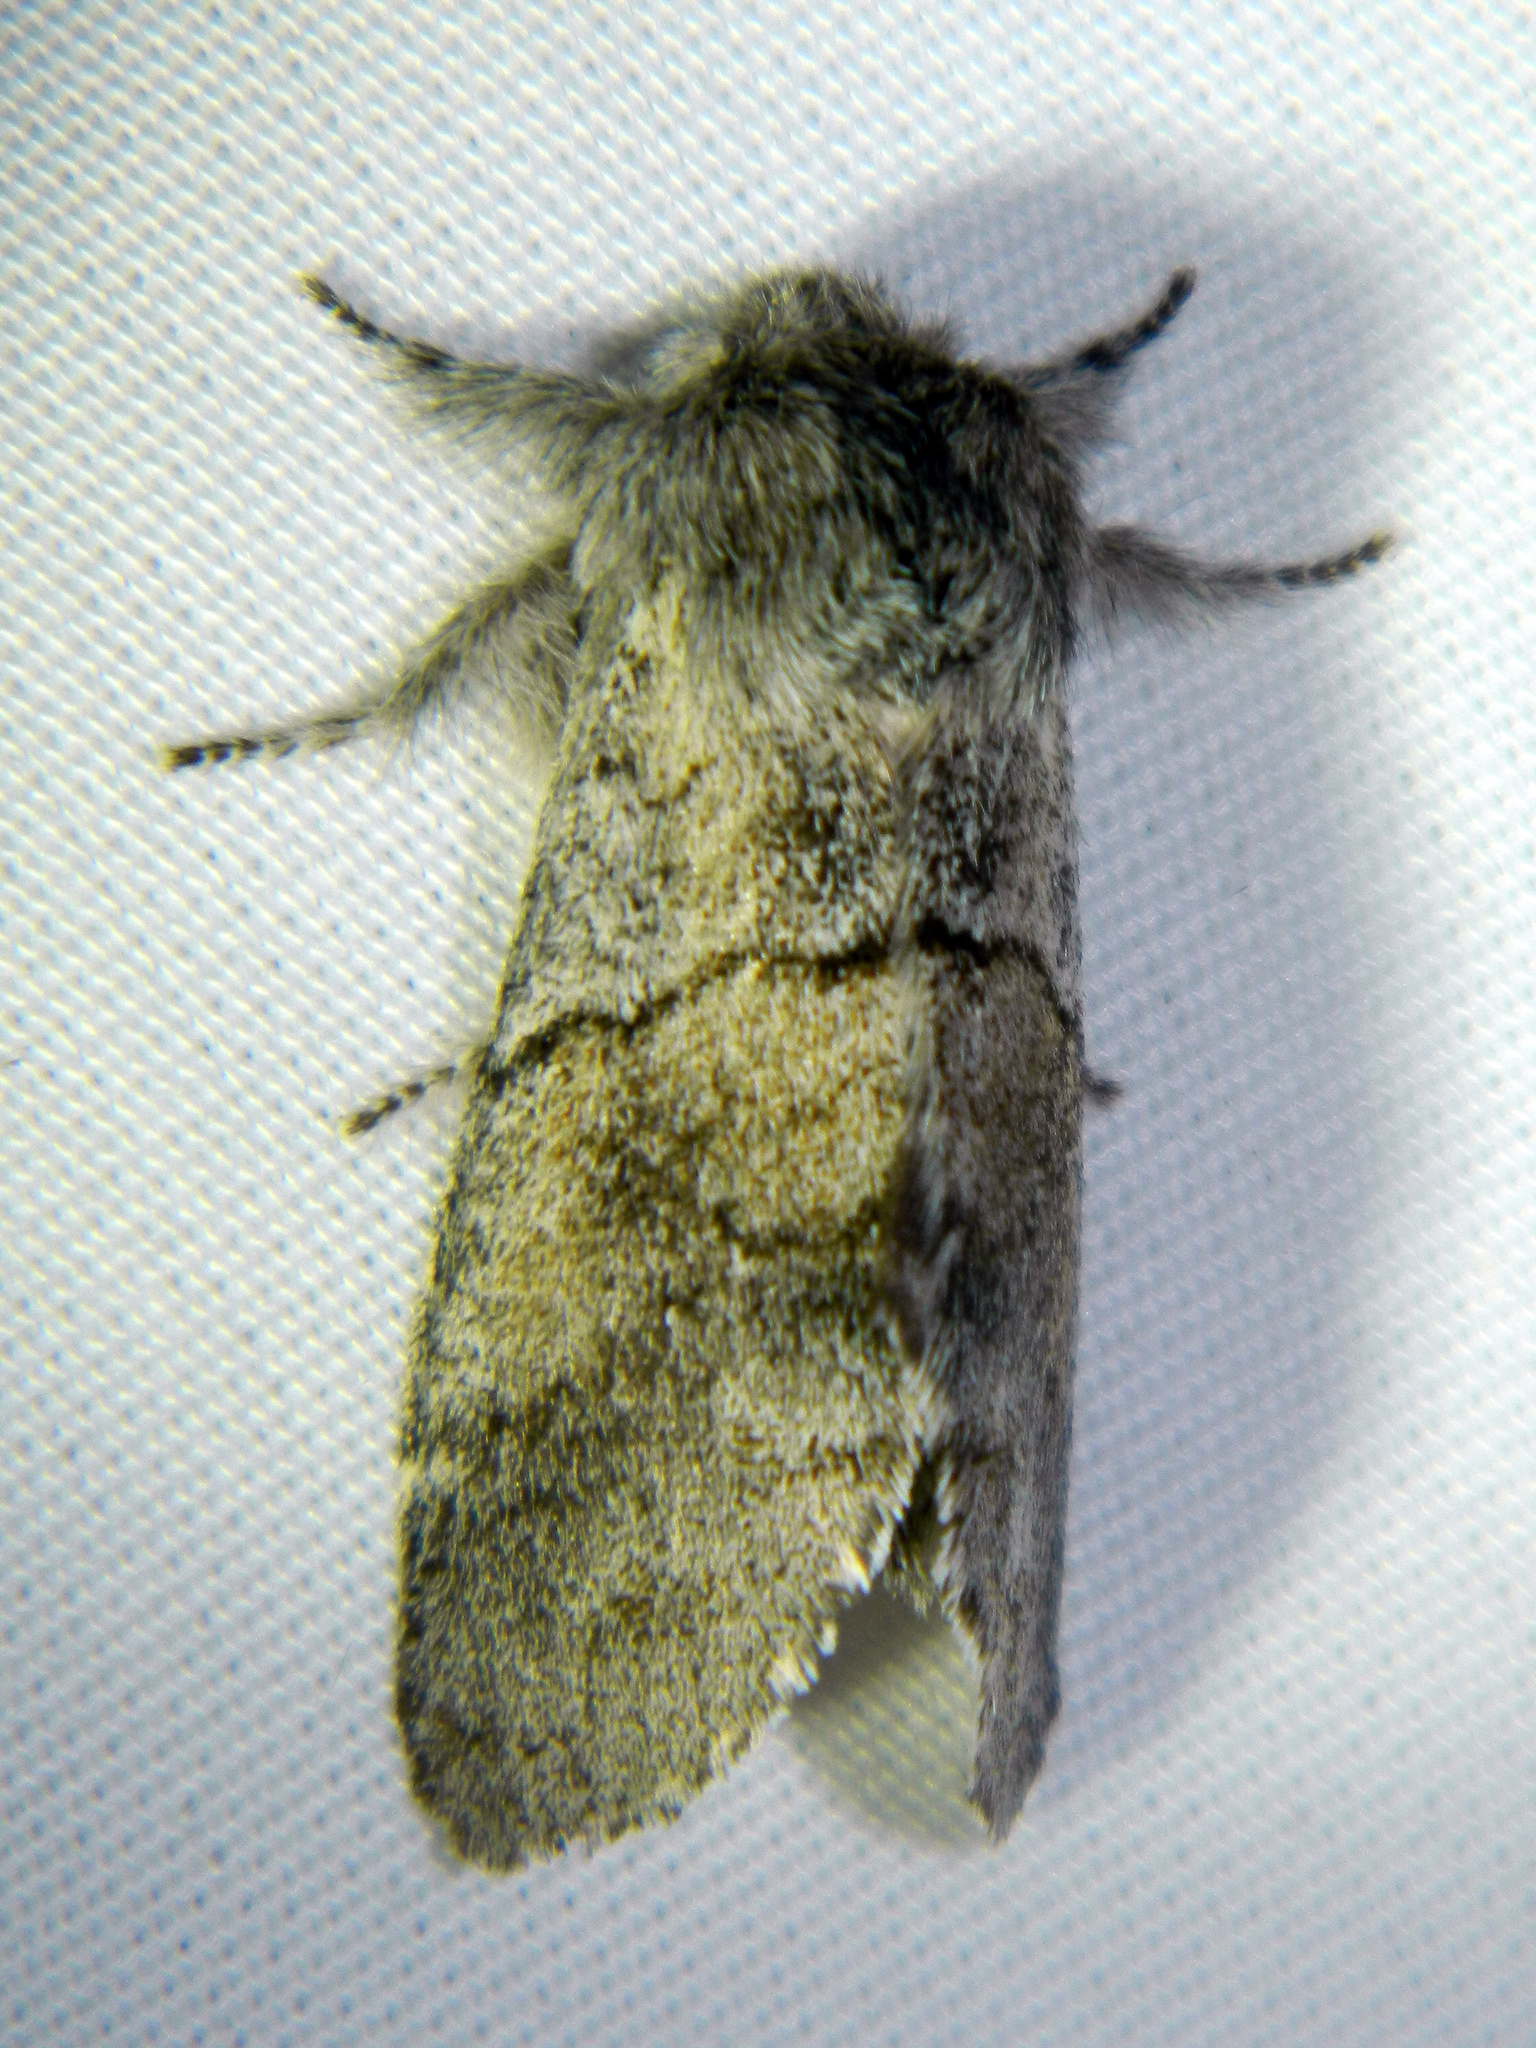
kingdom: Animalia
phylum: Arthropoda
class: Insecta
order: Lepidoptera
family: Notodontidae
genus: Gluphisia
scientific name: Gluphisia lintneri
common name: Lintner's gluphisia moth
